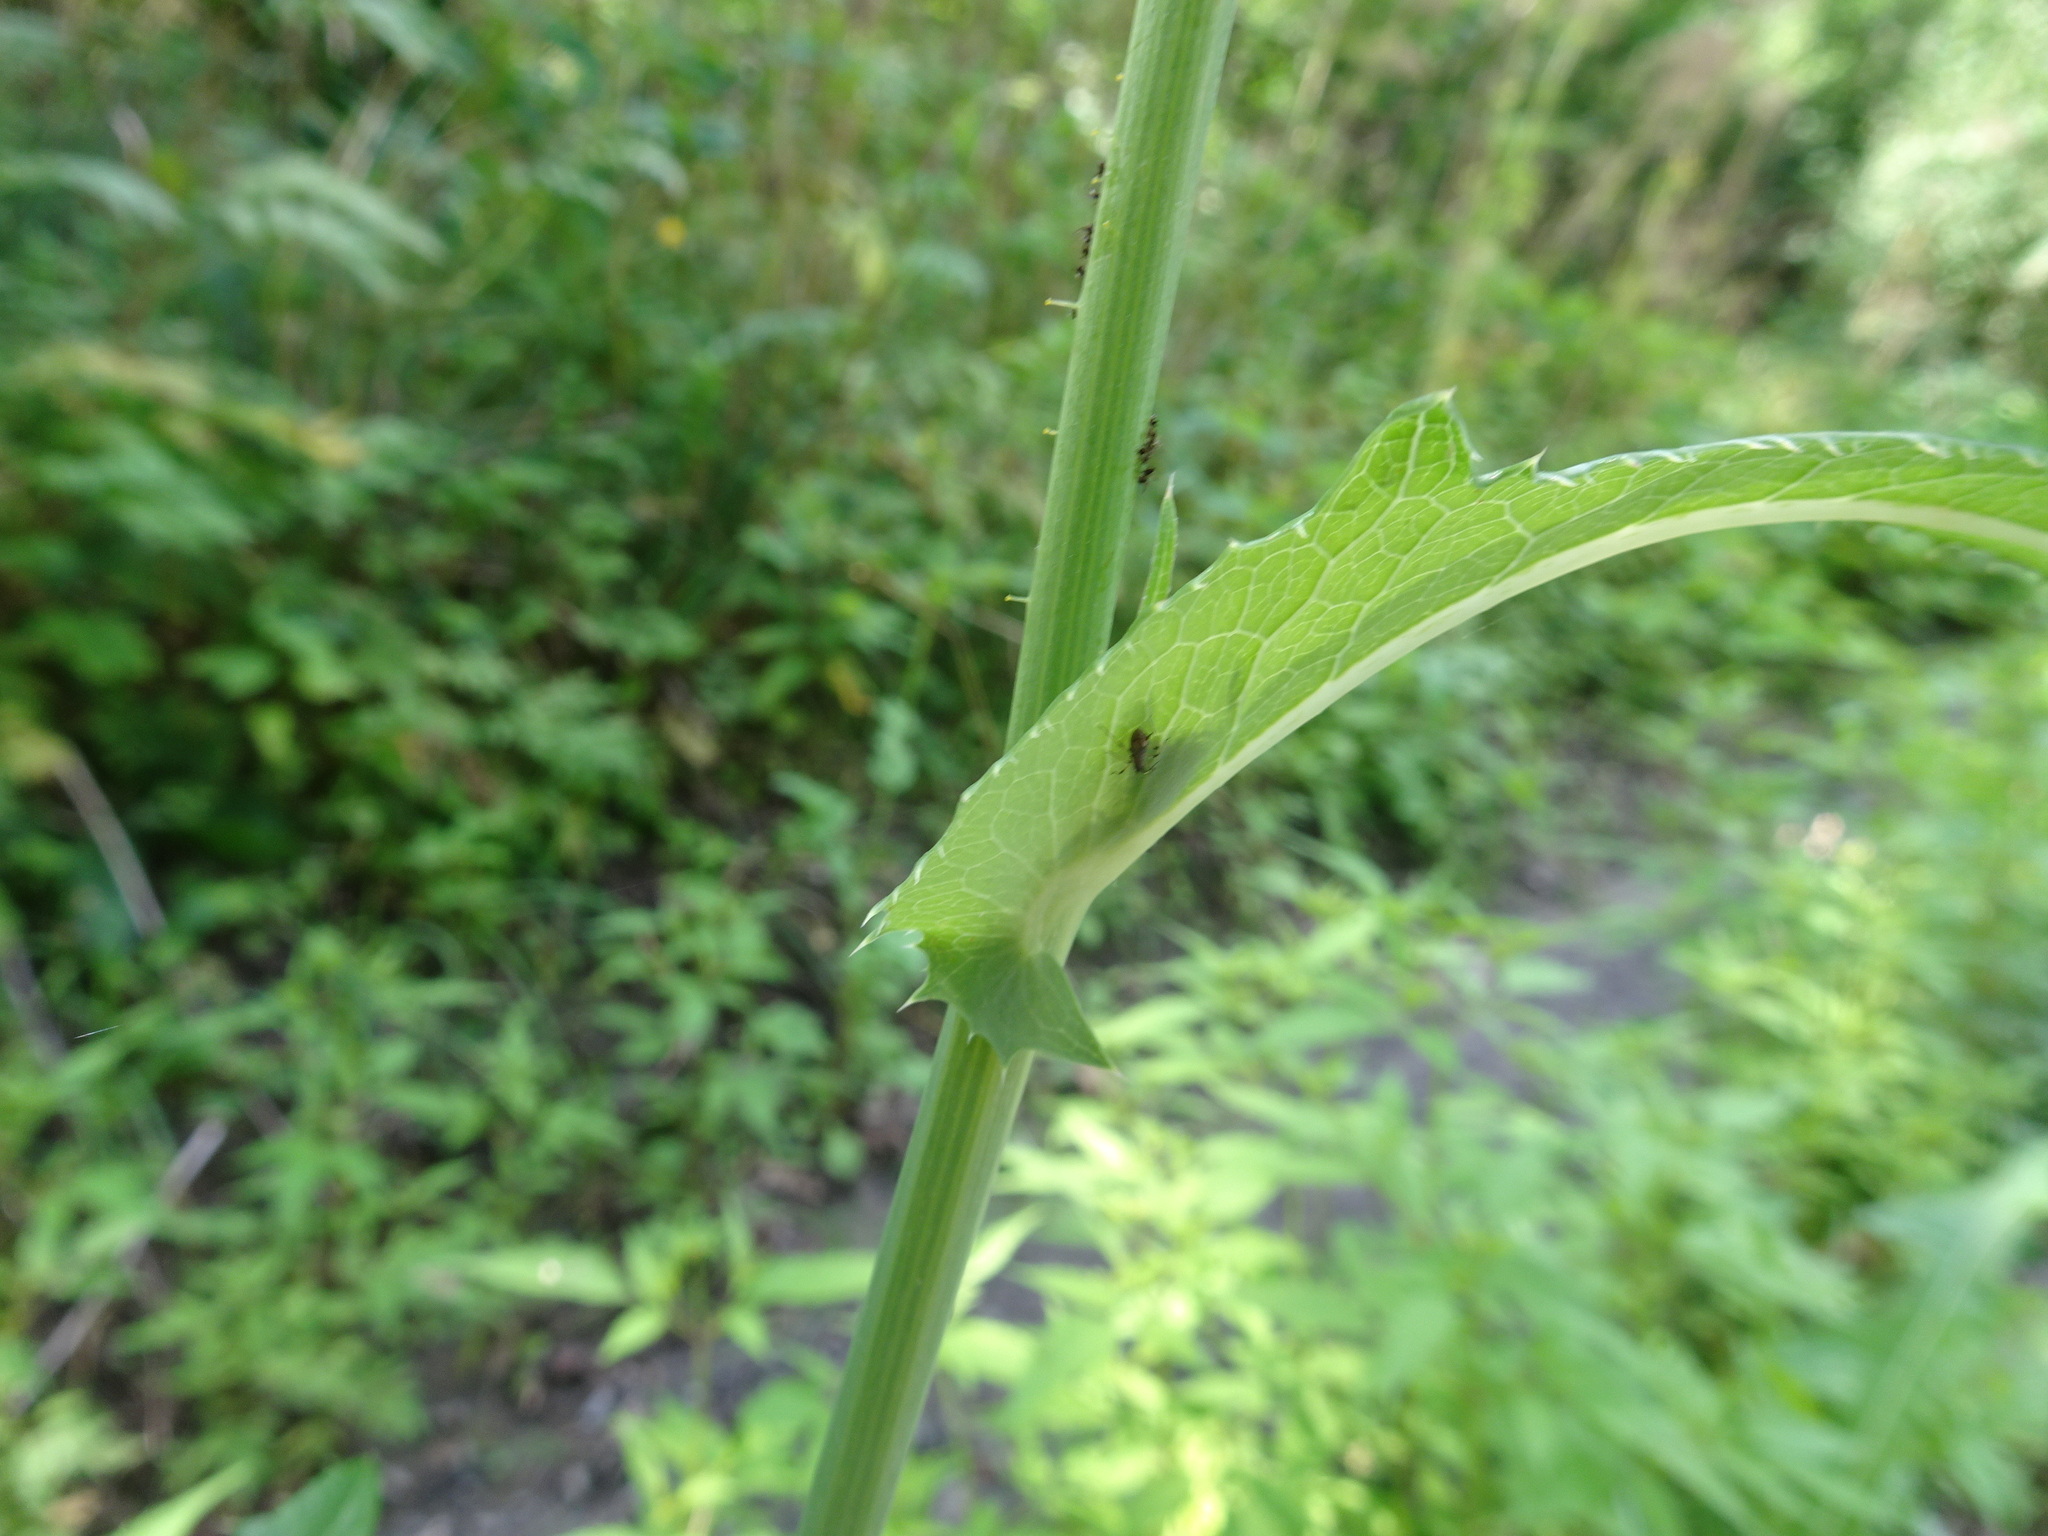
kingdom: Plantae
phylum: Tracheophyta
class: Magnoliopsida
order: Asterales
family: Asteraceae
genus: Sonchus
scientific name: Sonchus arvensis
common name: Perennial sow-thistle
